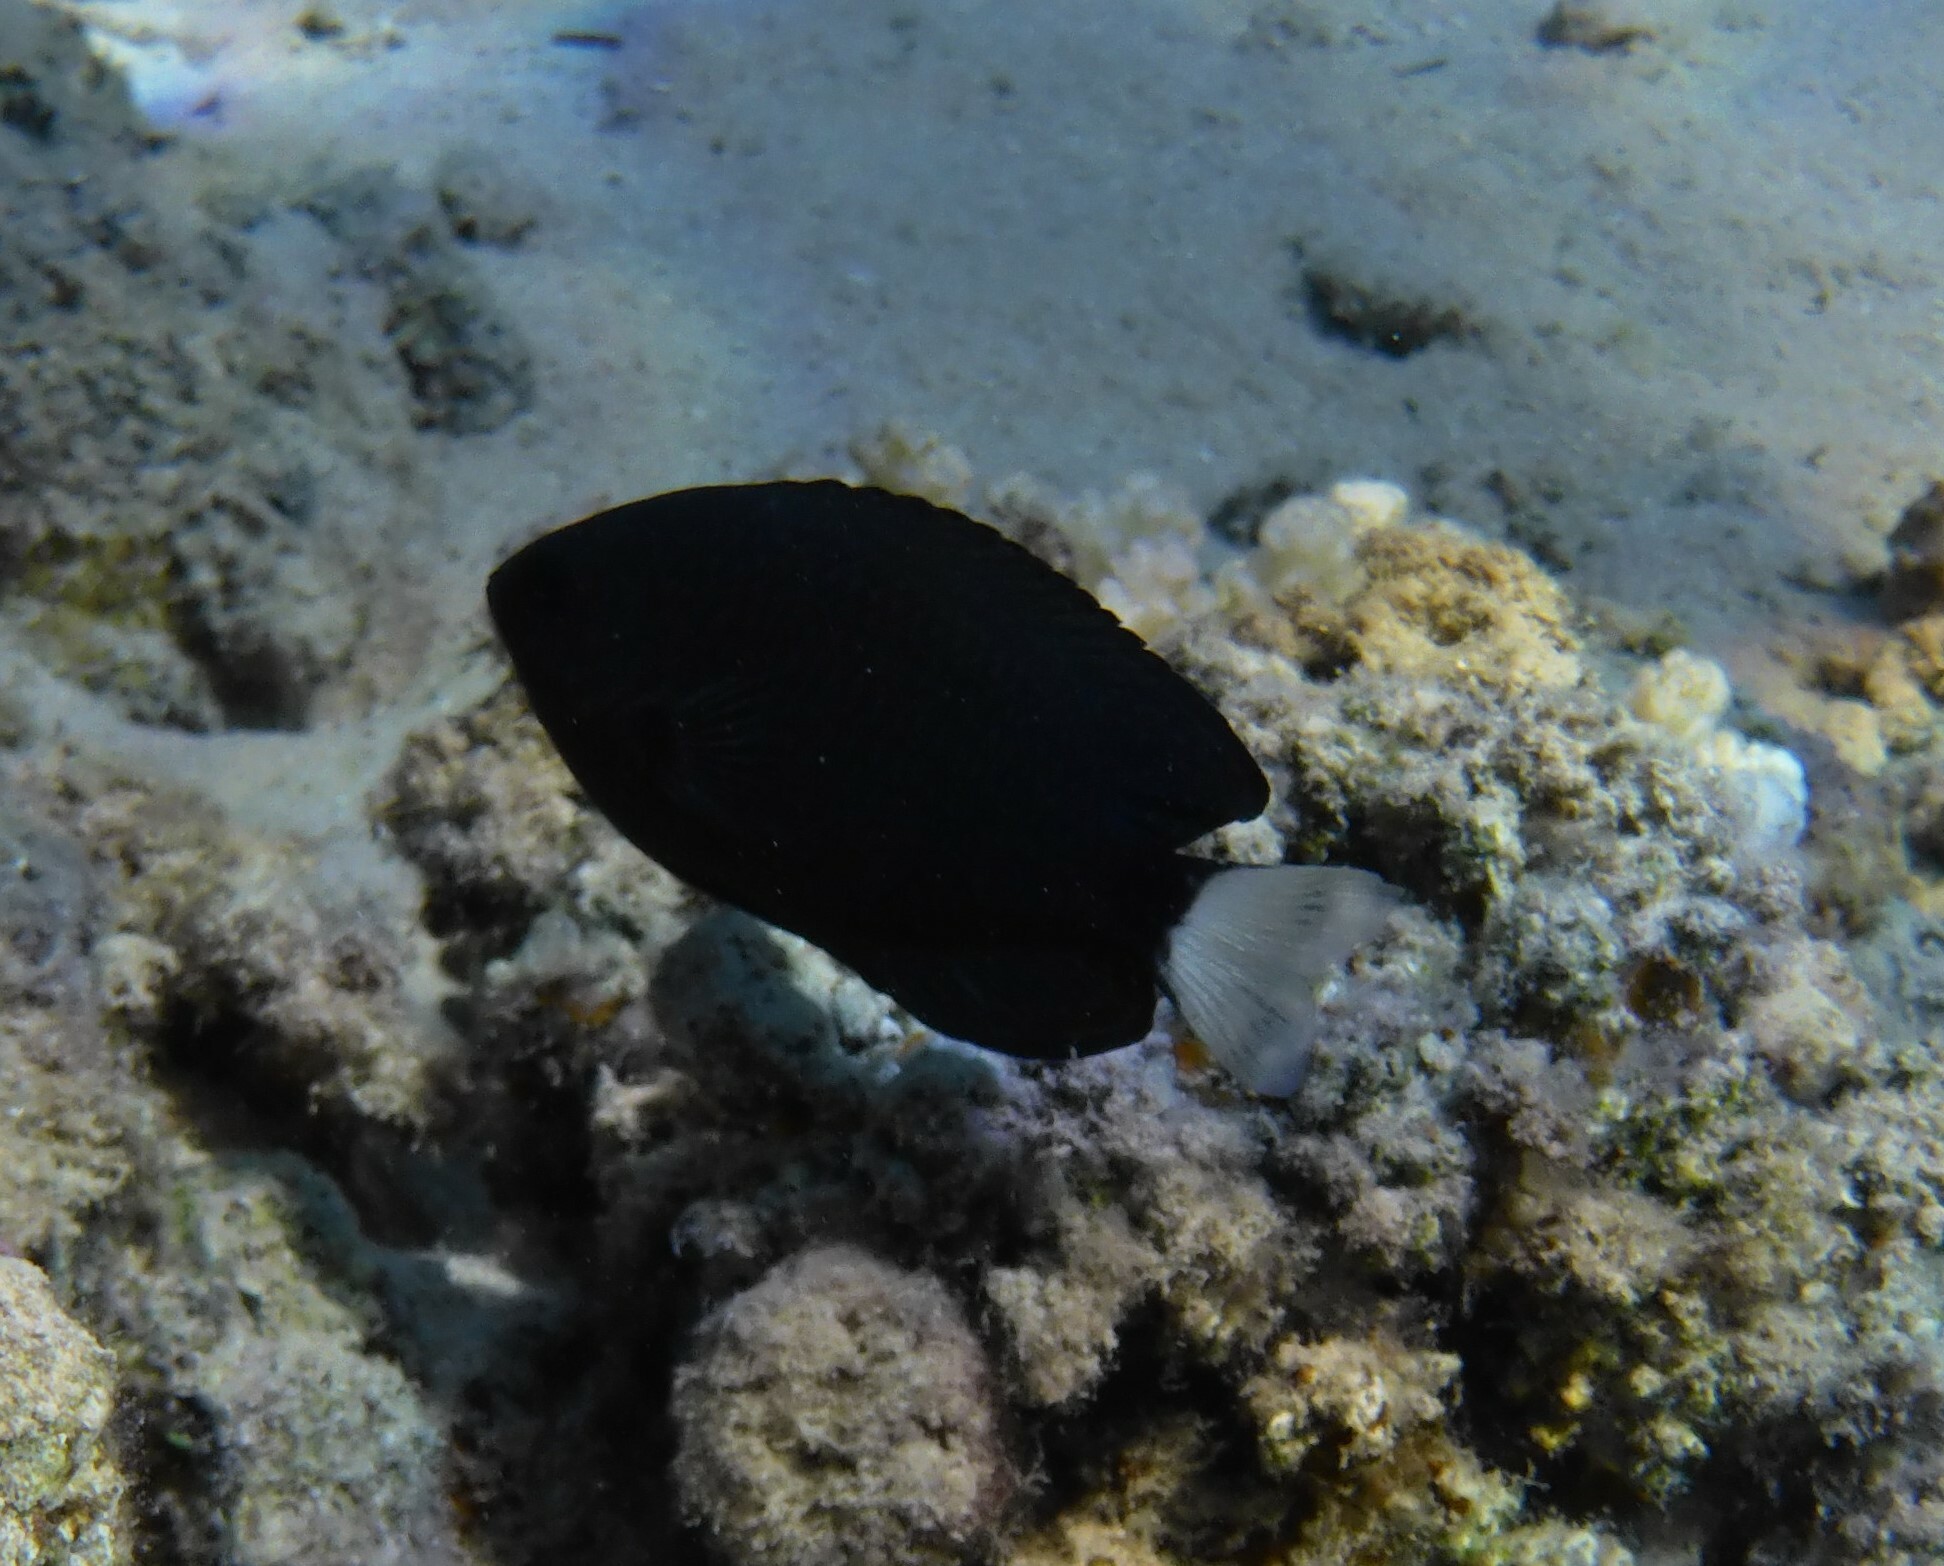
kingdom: Animalia
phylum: Chordata
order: Perciformes
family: Pomacentridae
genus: Pomacentrus
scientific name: Pomacentrus trichrourus
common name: Paletail damsel
